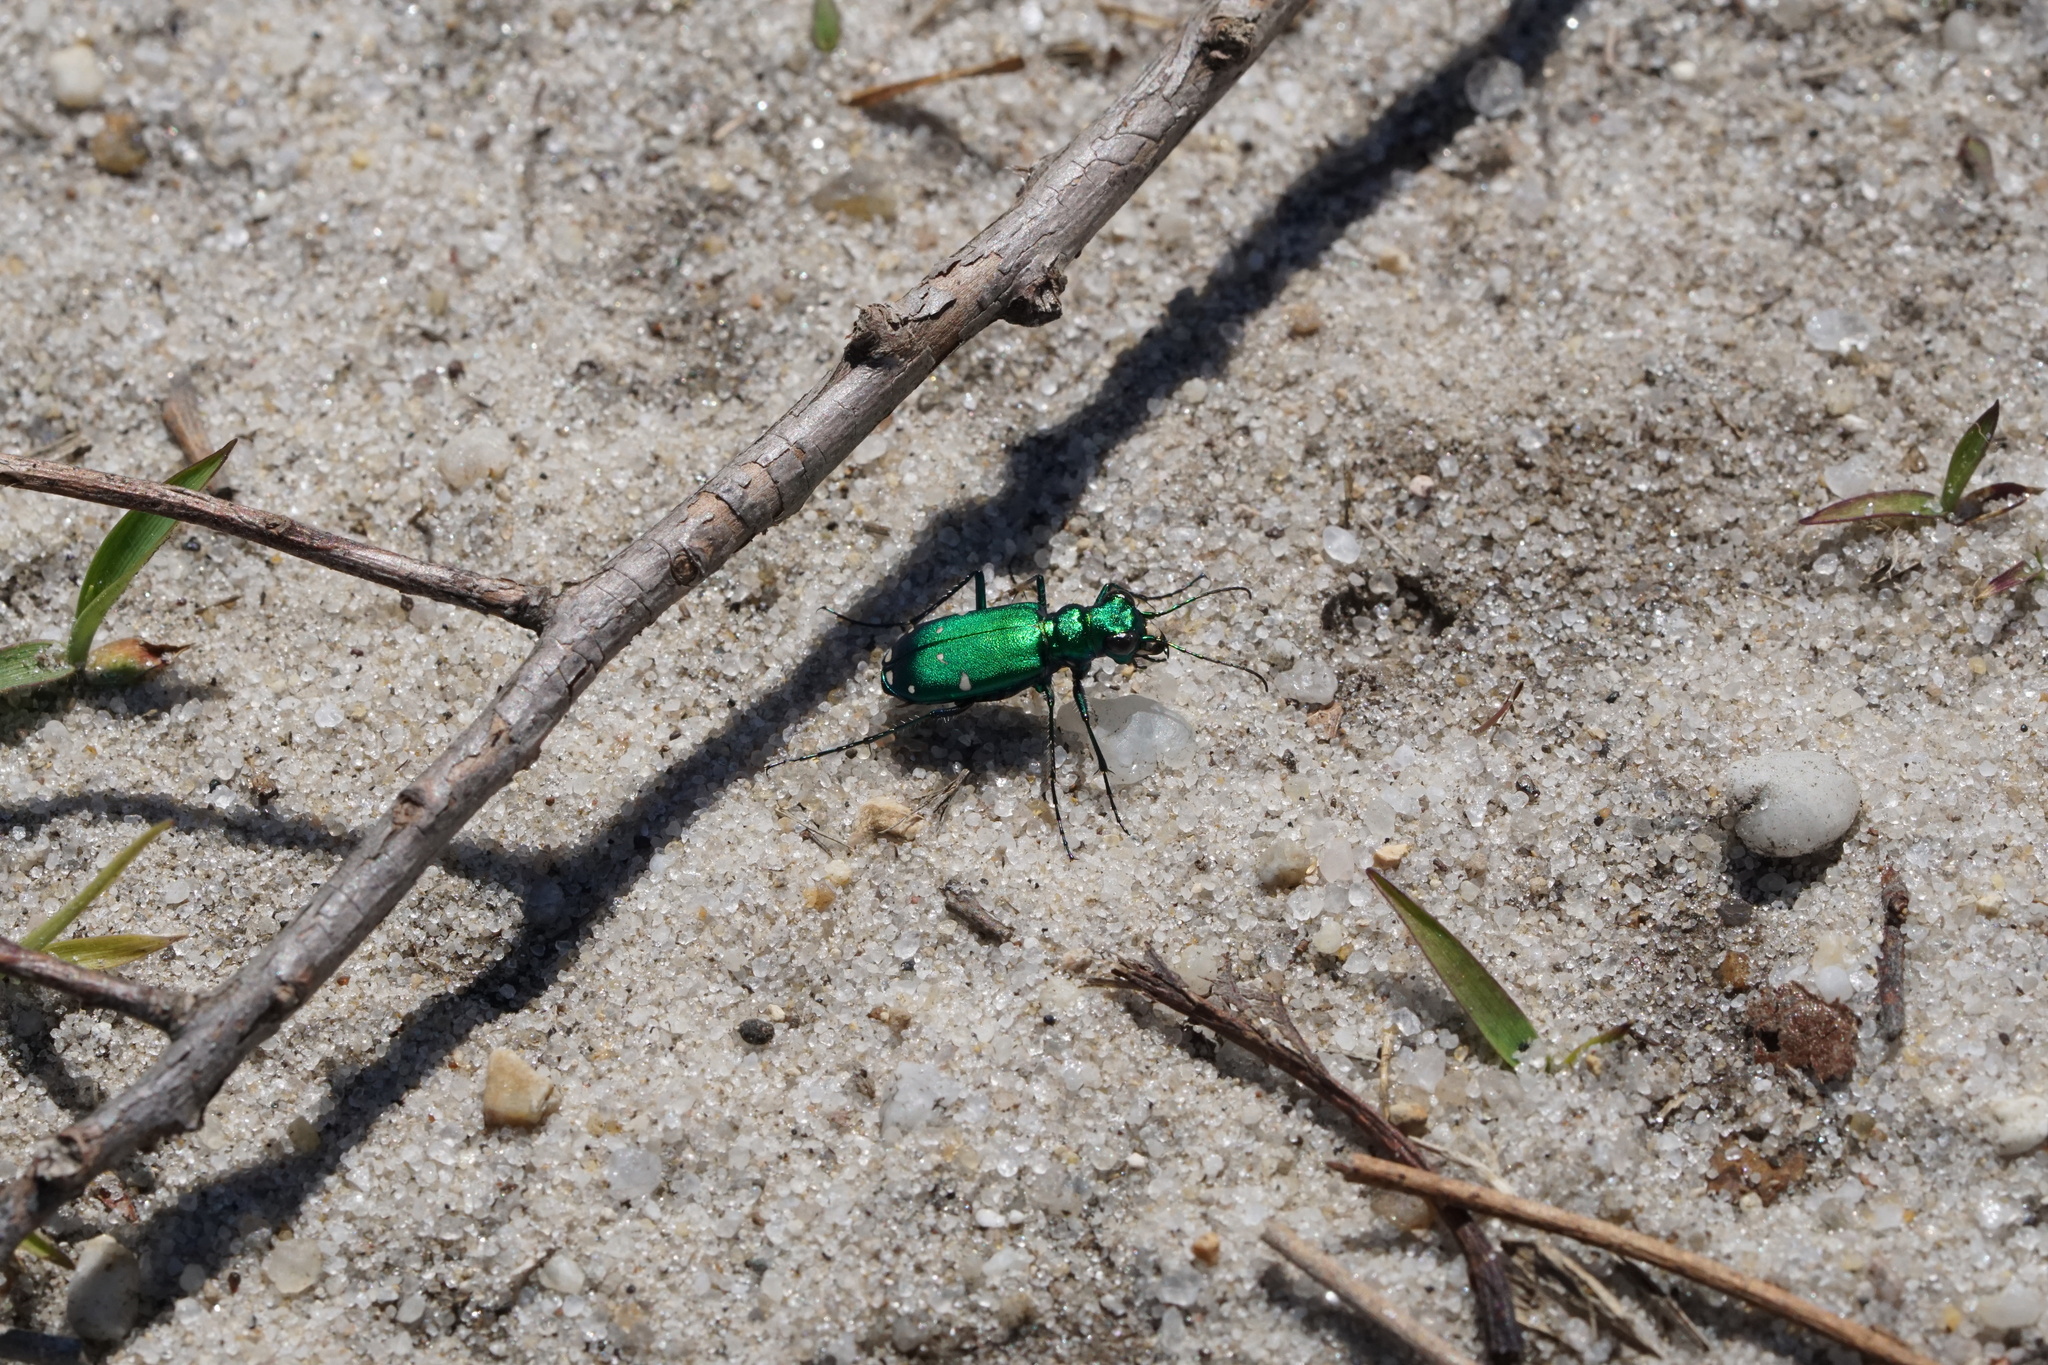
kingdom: Animalia
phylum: Arthropoda
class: Insecta
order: Coleoptera
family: Carabidae
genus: Cicindela
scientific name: Cicindela sexguttata
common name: Six-spotted tiger beetle
